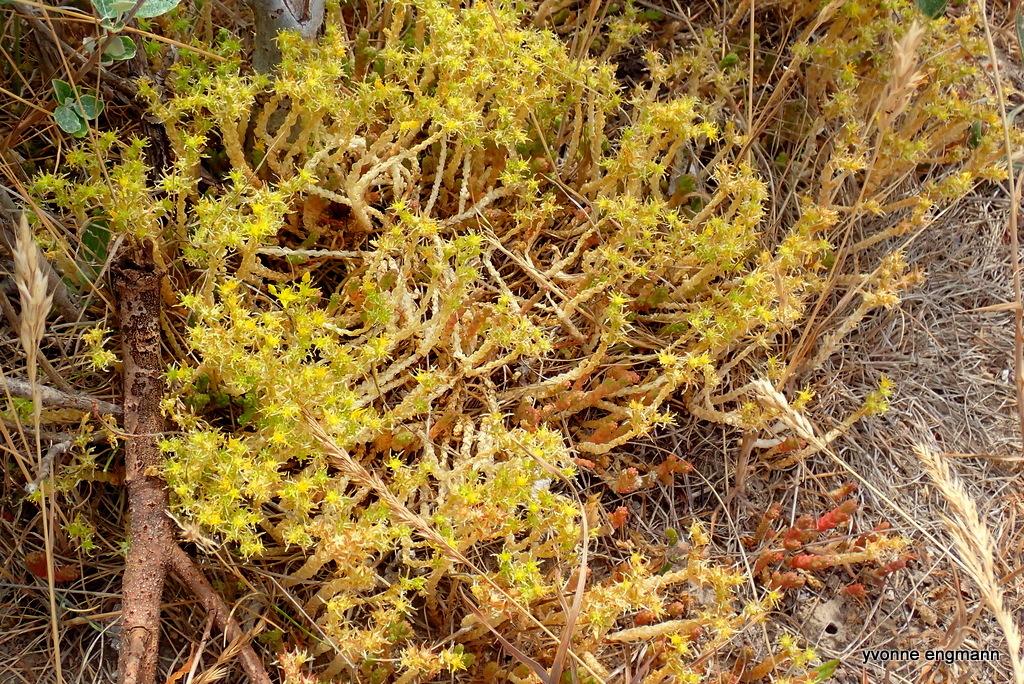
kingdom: Plantae
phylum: Tracheophyta
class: Magnoliopsida
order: Saxifragales
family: Crassulaceae
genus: Sedum
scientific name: Sedum acre
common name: Biting stonecrop
